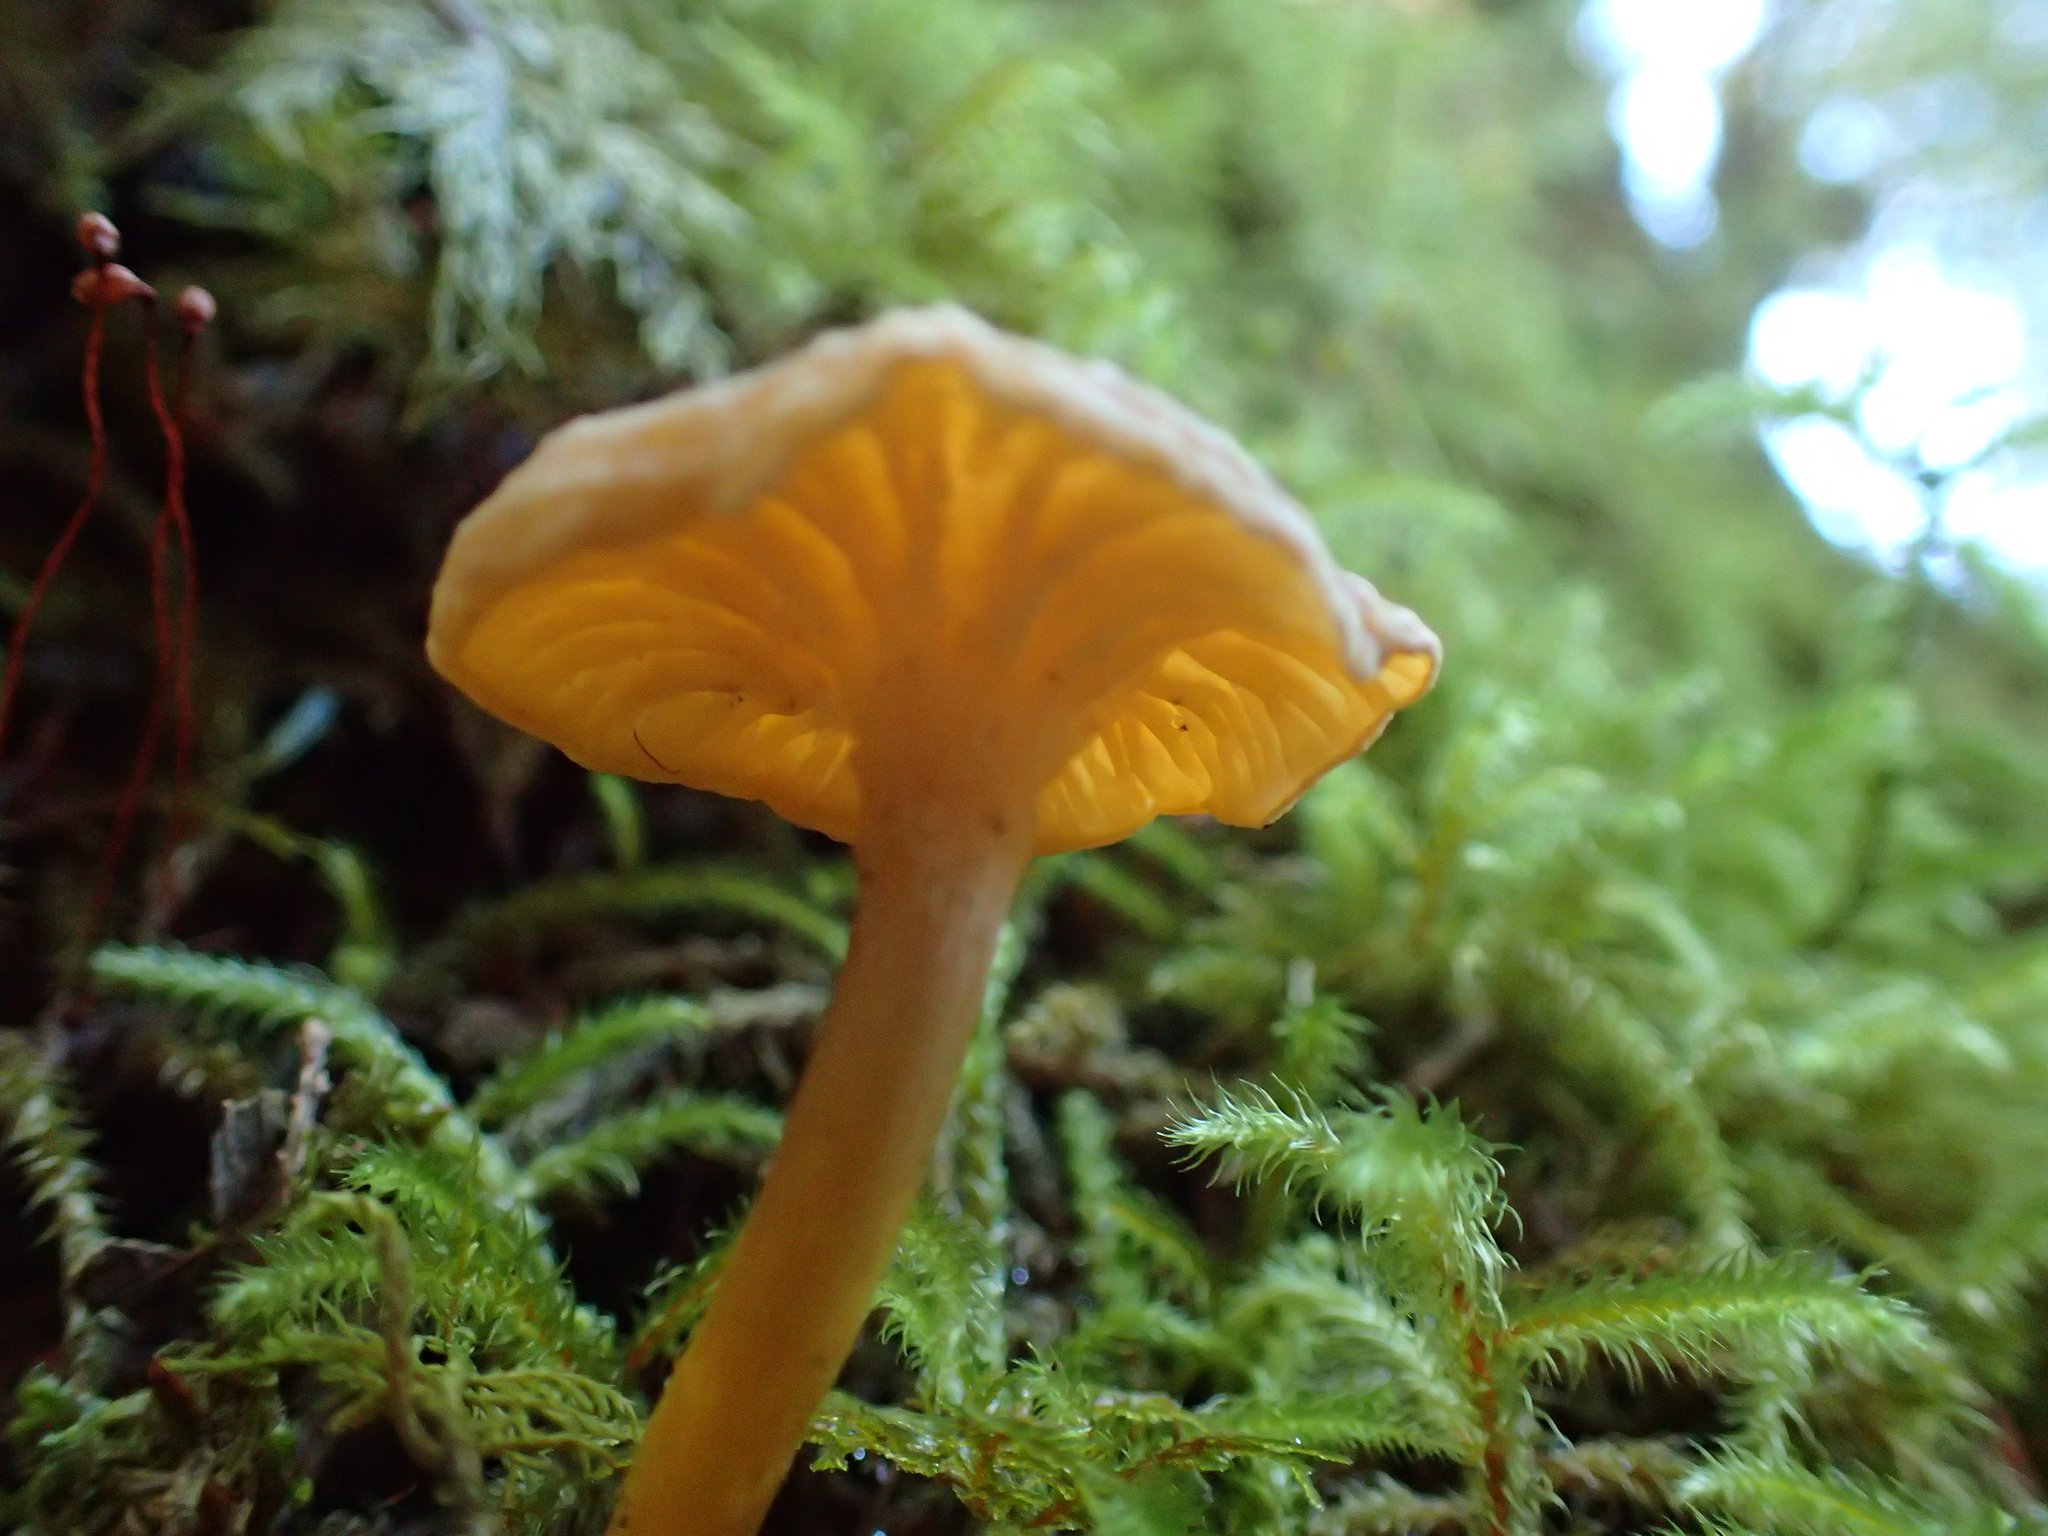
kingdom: Fungi
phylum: Basidiomycota
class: Agaricomycetes
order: Cantharellales
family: Hydnaceae
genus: Craterellus
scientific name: Craterellus tubaeformis
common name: Yellowfoot
